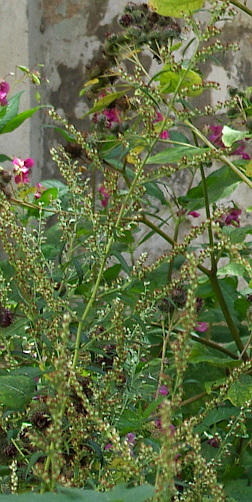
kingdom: Plantae
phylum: Tracheophyta
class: Magnoliopsida
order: Asterales
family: Asteraceae
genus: Artemisia
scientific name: Artemisia vulgaris
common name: Mugwort
